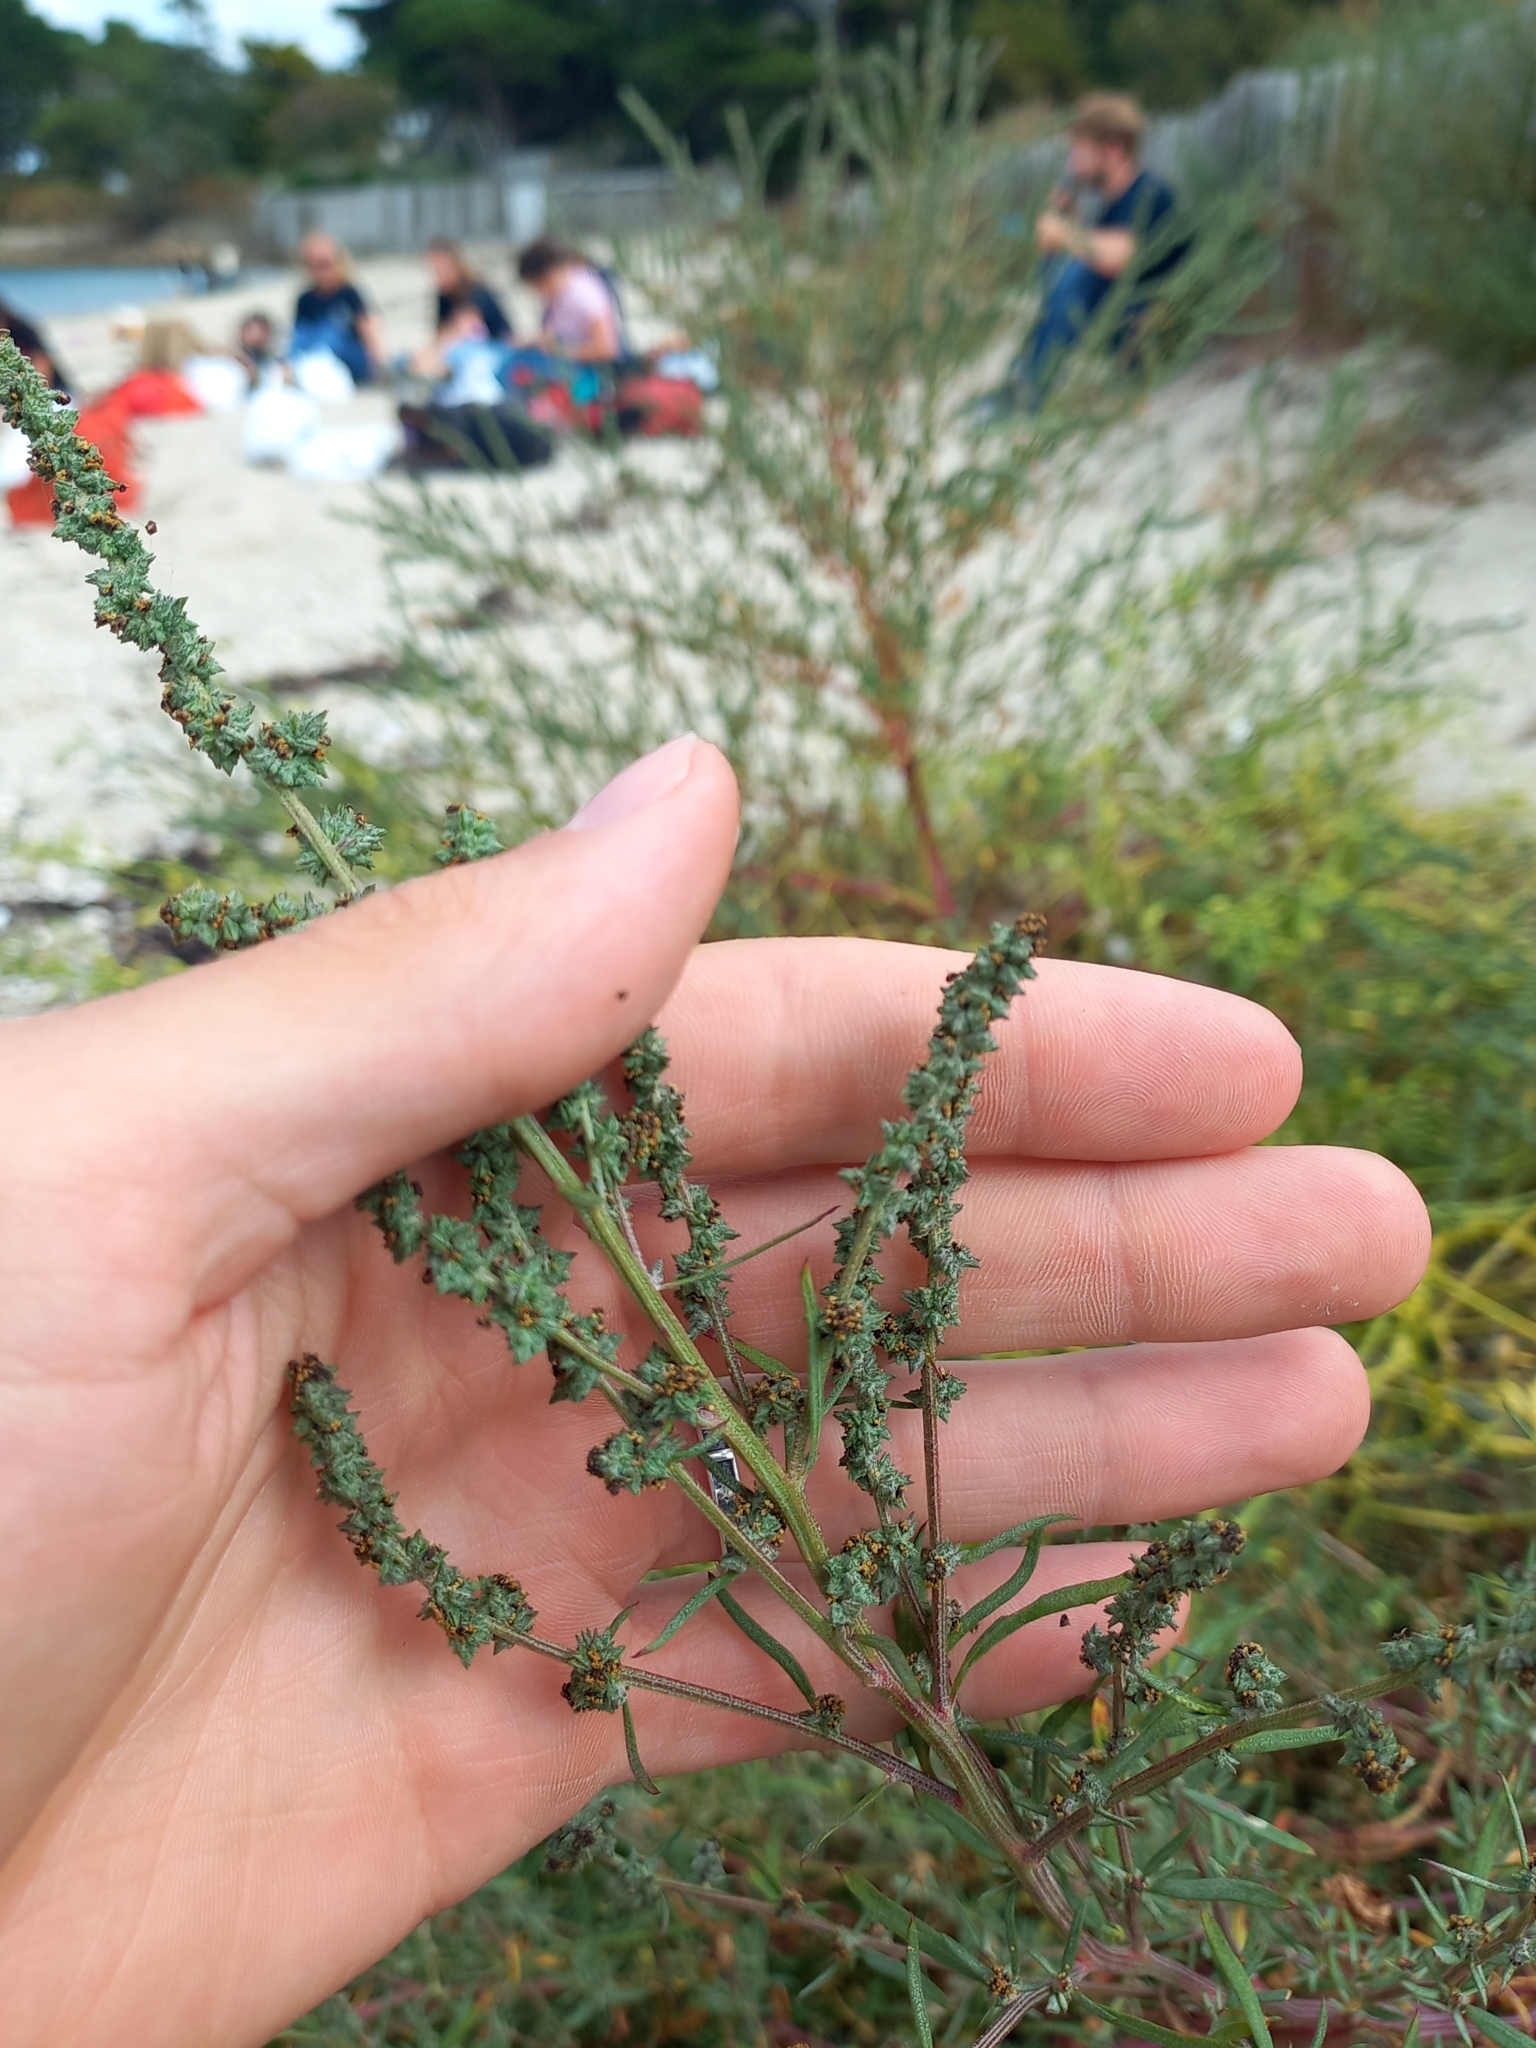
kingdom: Plantae
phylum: Tracheophyta
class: Magnoliopsida
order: Caryophyllales
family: Amaranthaceae
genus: Atriplex
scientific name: Atriplex littoralis
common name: Grass-leaved orache
